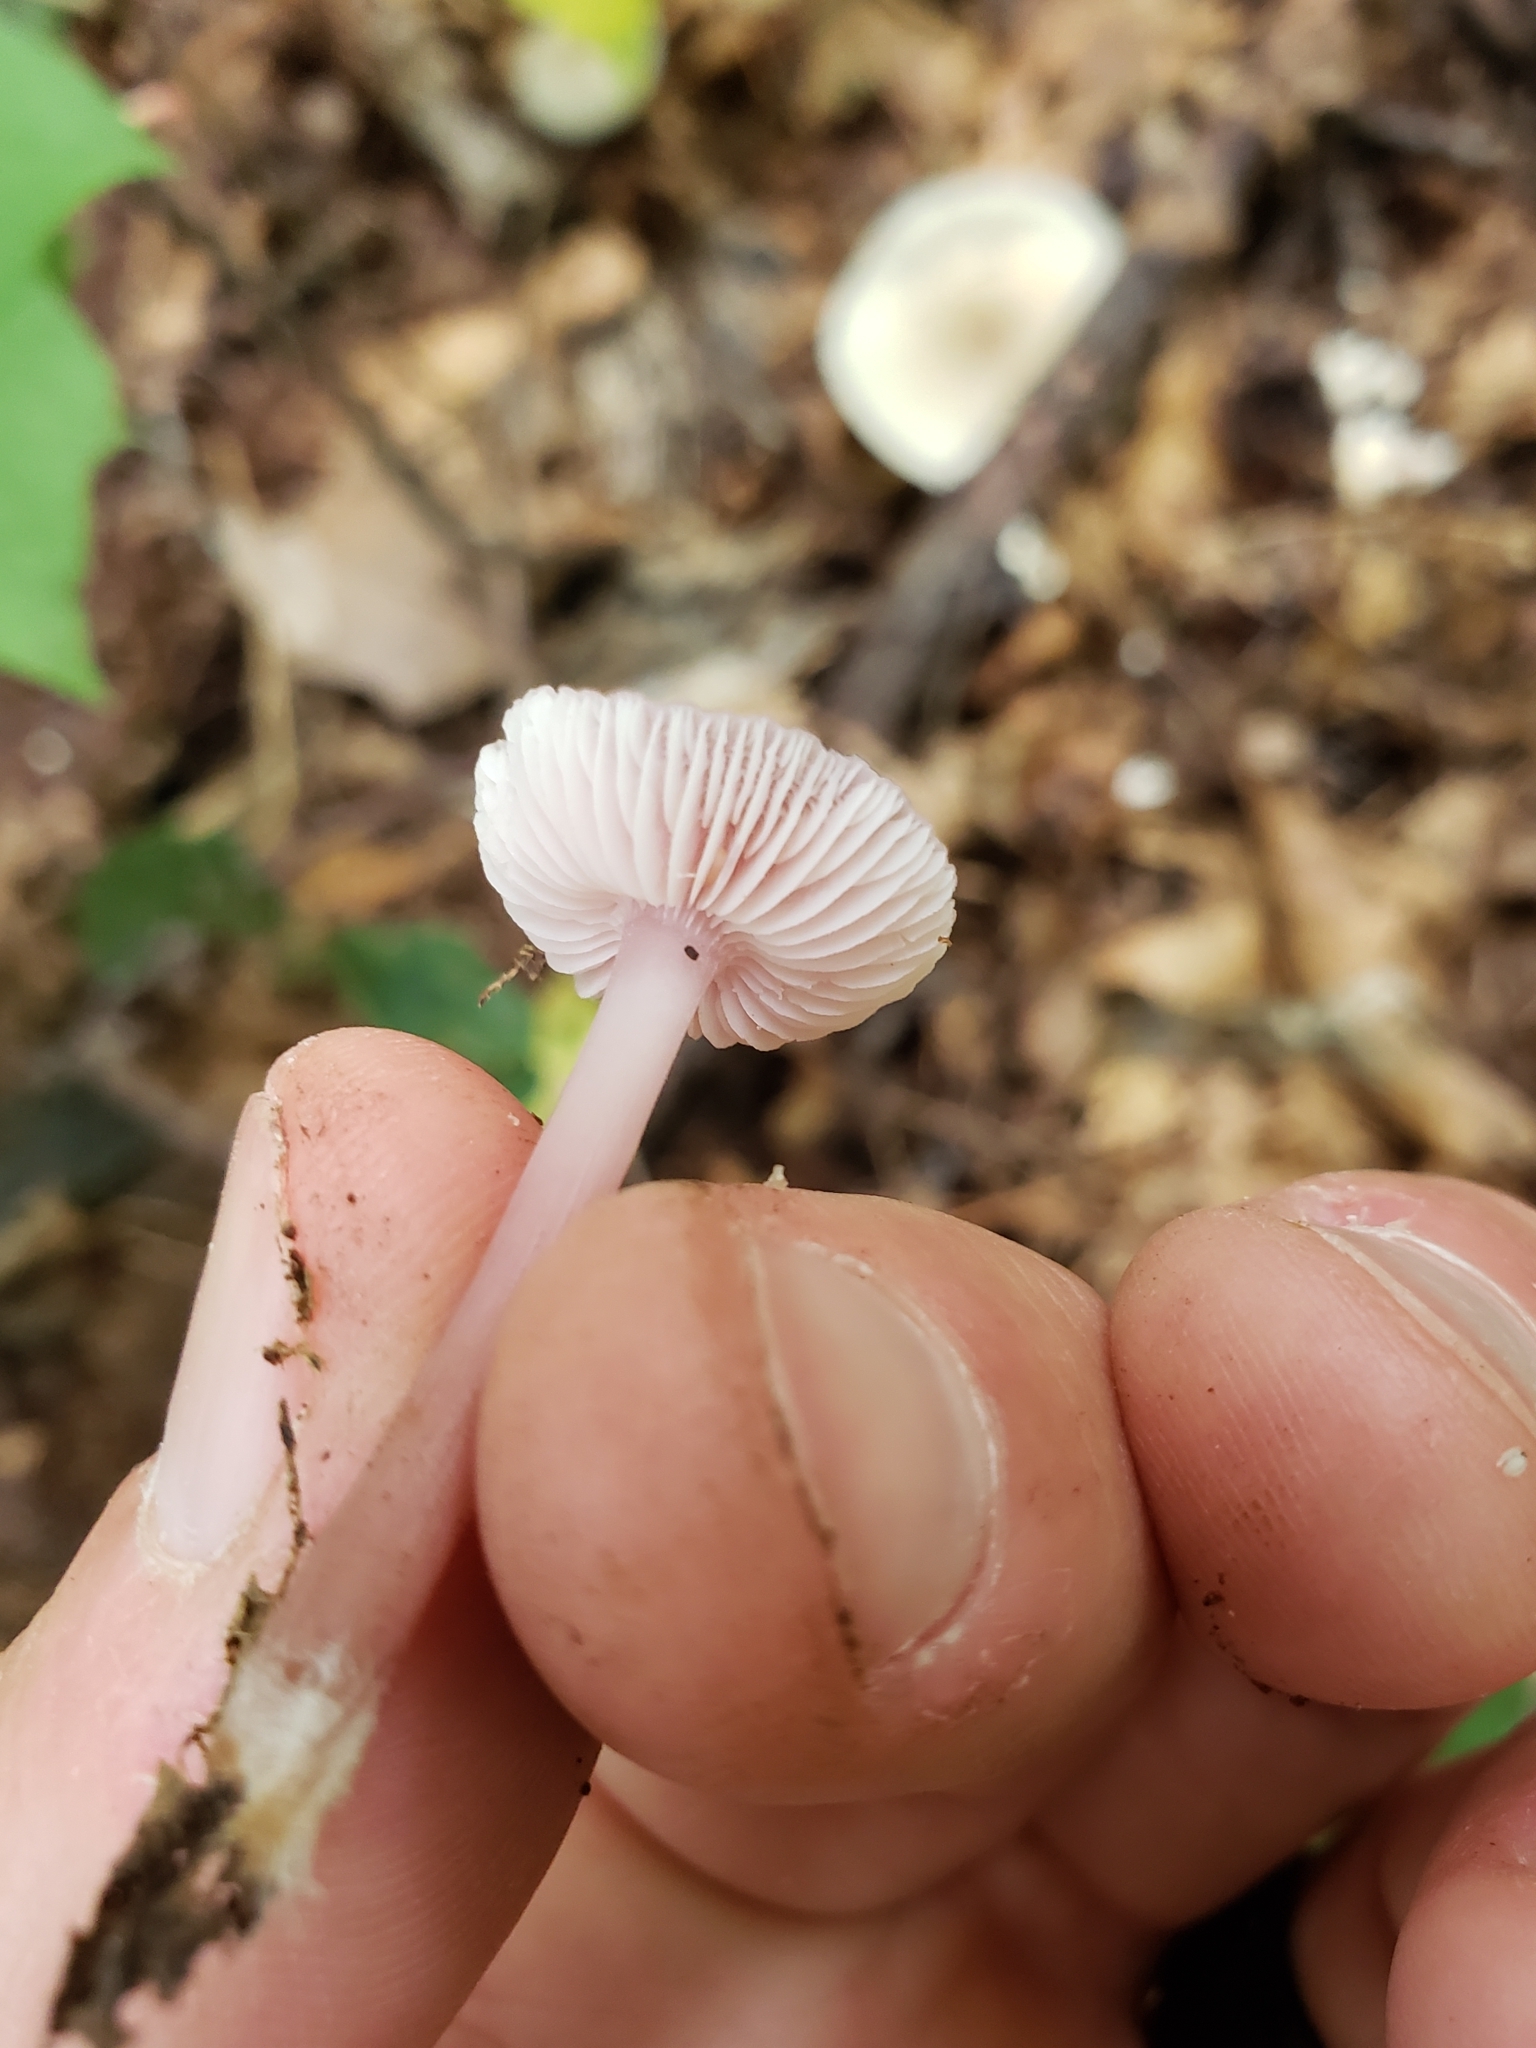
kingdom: Fungi
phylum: Basidiomycota
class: Agaricomycetes
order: Agaricales
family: Mycenaceae
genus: Mycena
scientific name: Mycena pura
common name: Lilac bonnet
